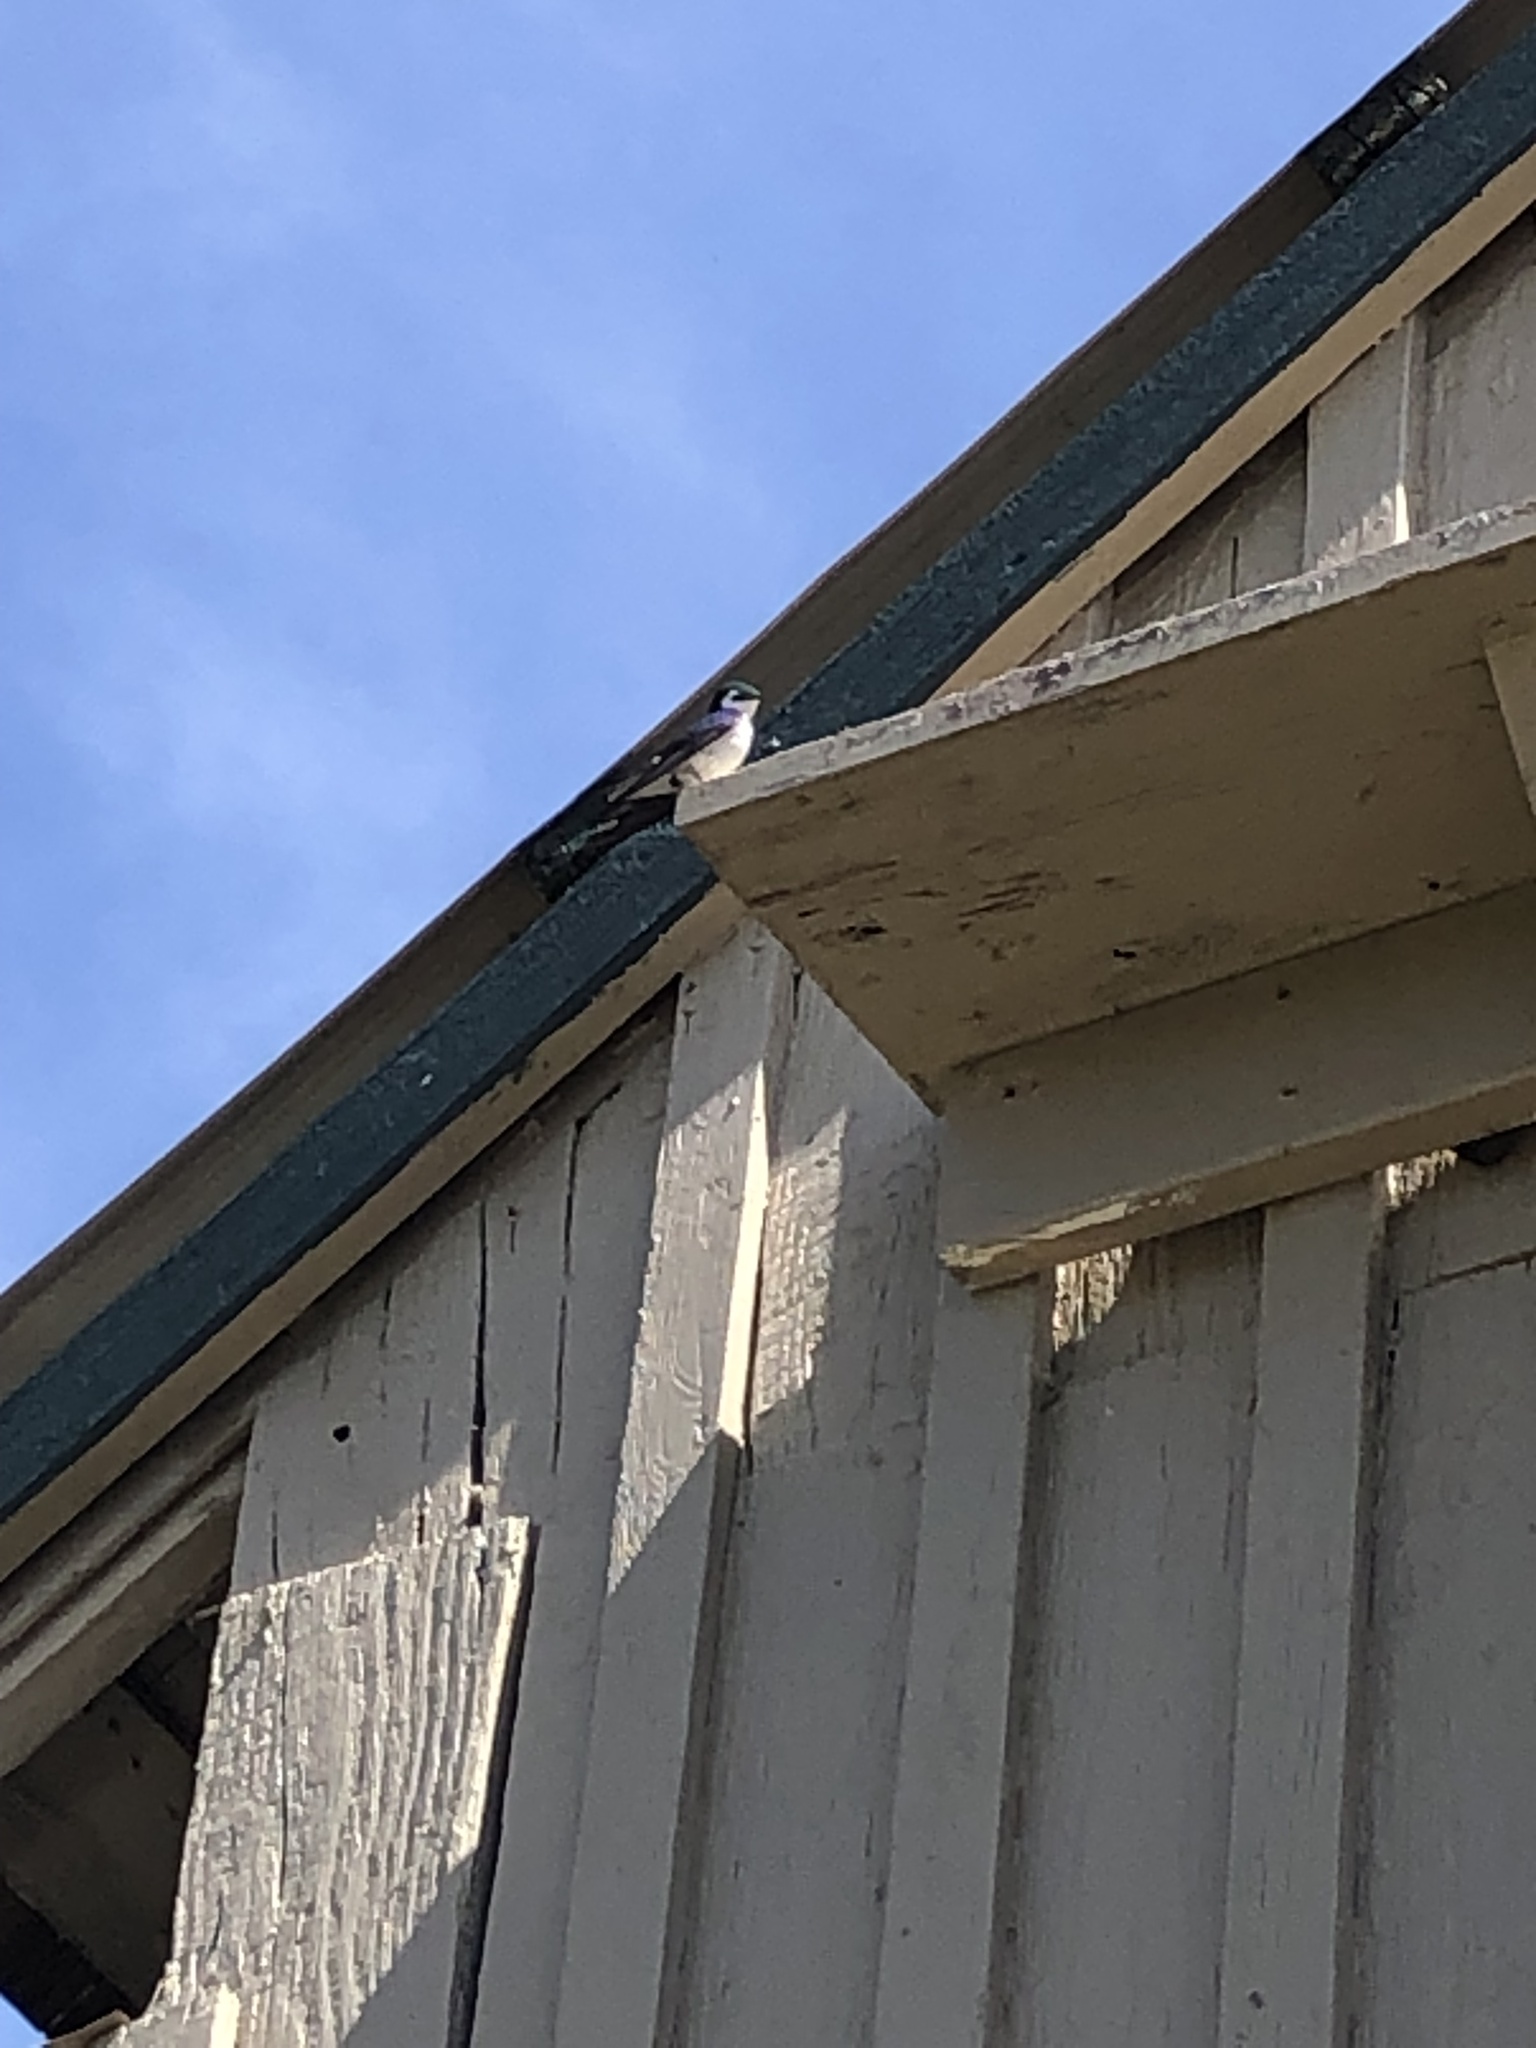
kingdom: Animalia
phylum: Chordata
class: Aves
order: Passeriformes
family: Hirundinidae
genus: Tachycineta
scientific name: Tachycineta thalassina
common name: Violet-green swallow
